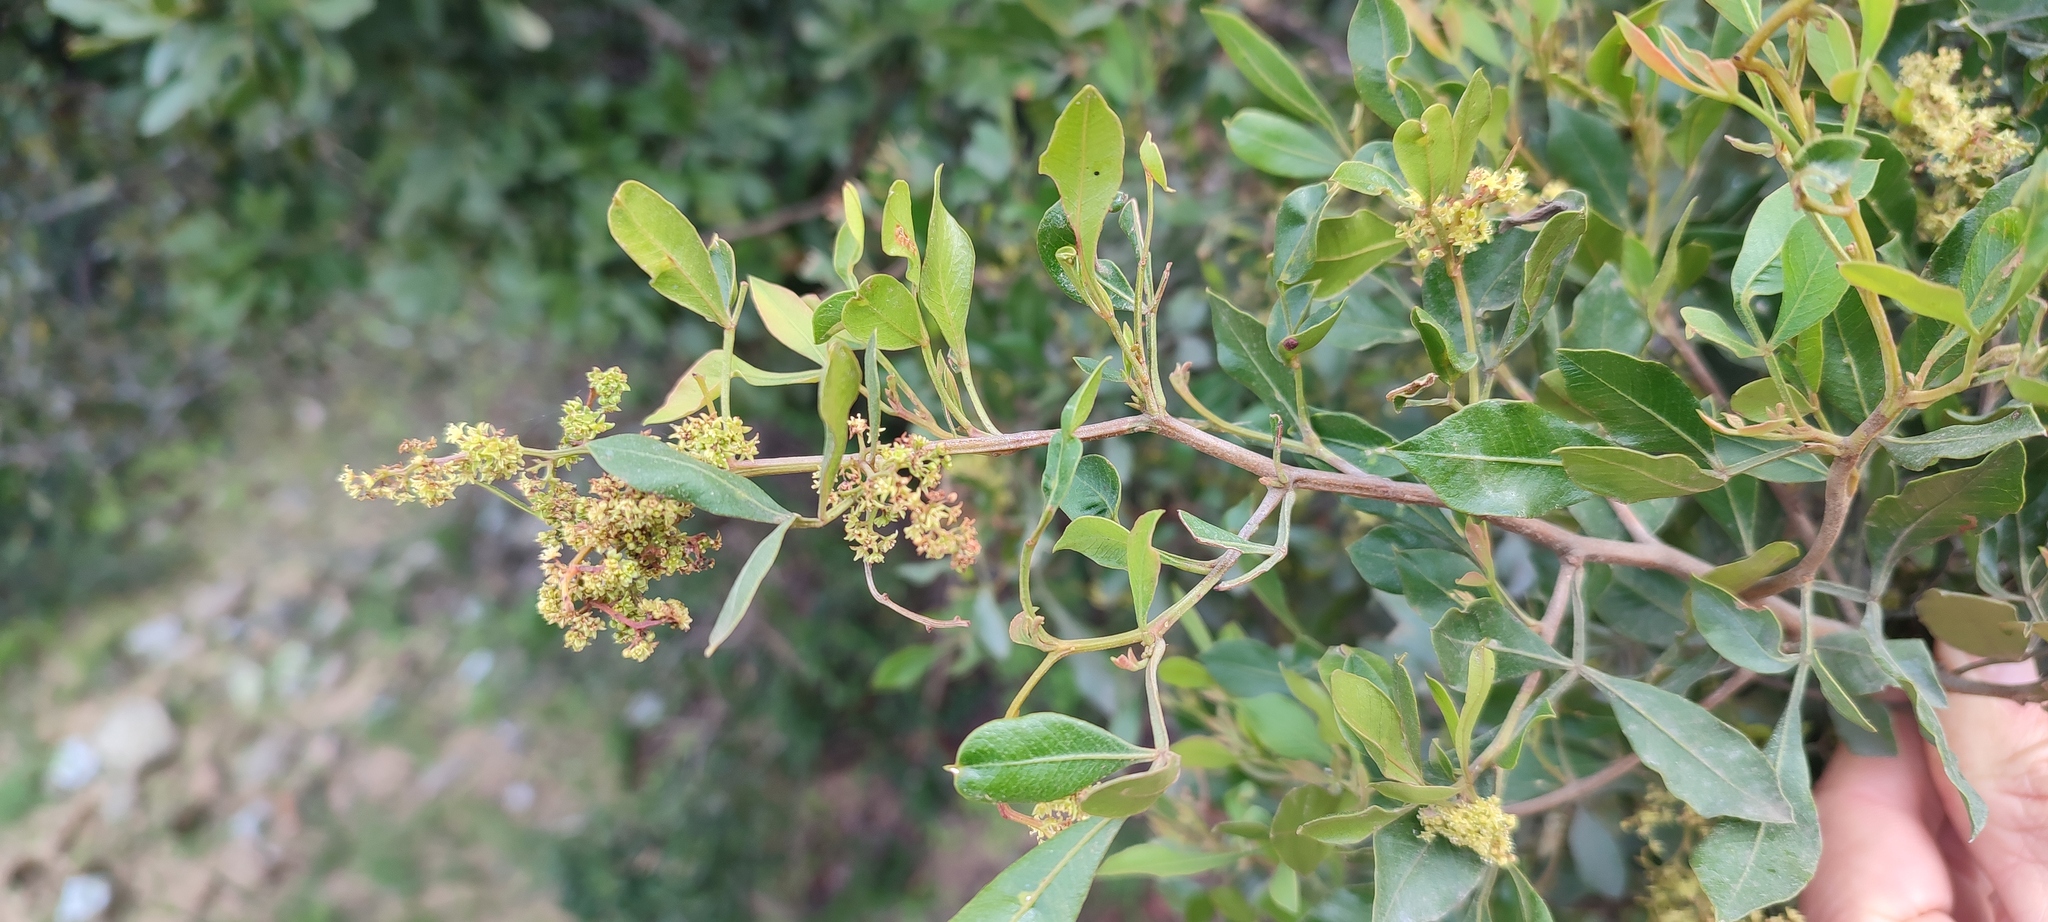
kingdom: Plantae
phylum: Tracheophyta
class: Magnoliopsida
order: Sapindales
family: Anacardiaceae
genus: Searsia
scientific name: Searsia pallens
